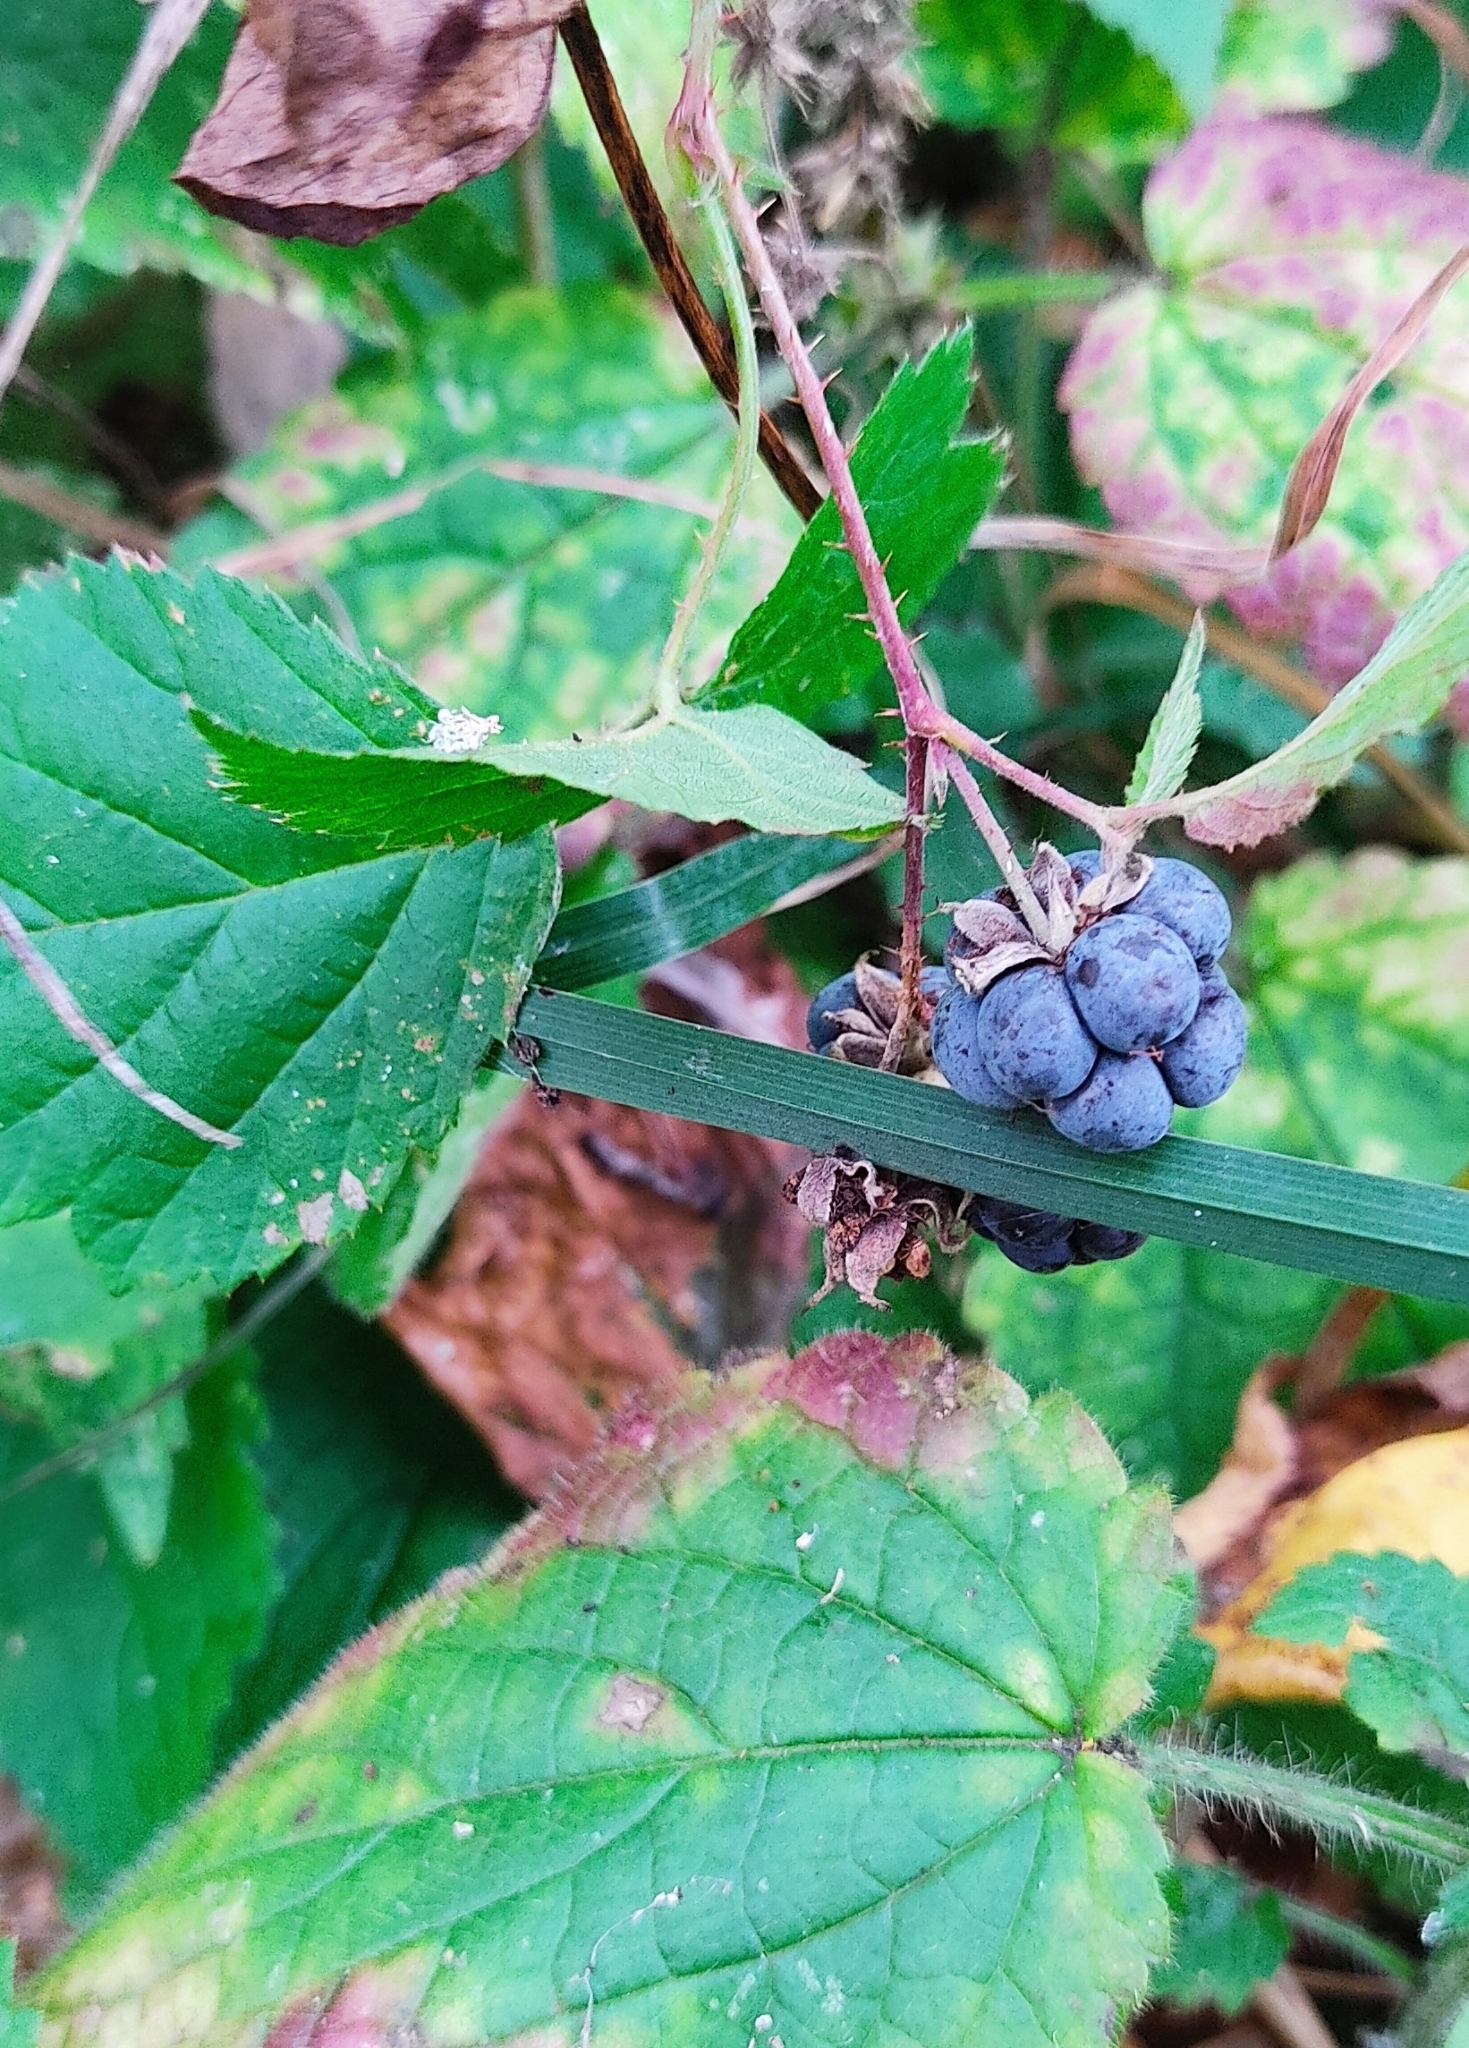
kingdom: Plantae
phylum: Tracheophyta
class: Magnoliopsida
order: Rosales
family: Rosaceae
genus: Rubus
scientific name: Rubus caesius
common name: Dewberry
